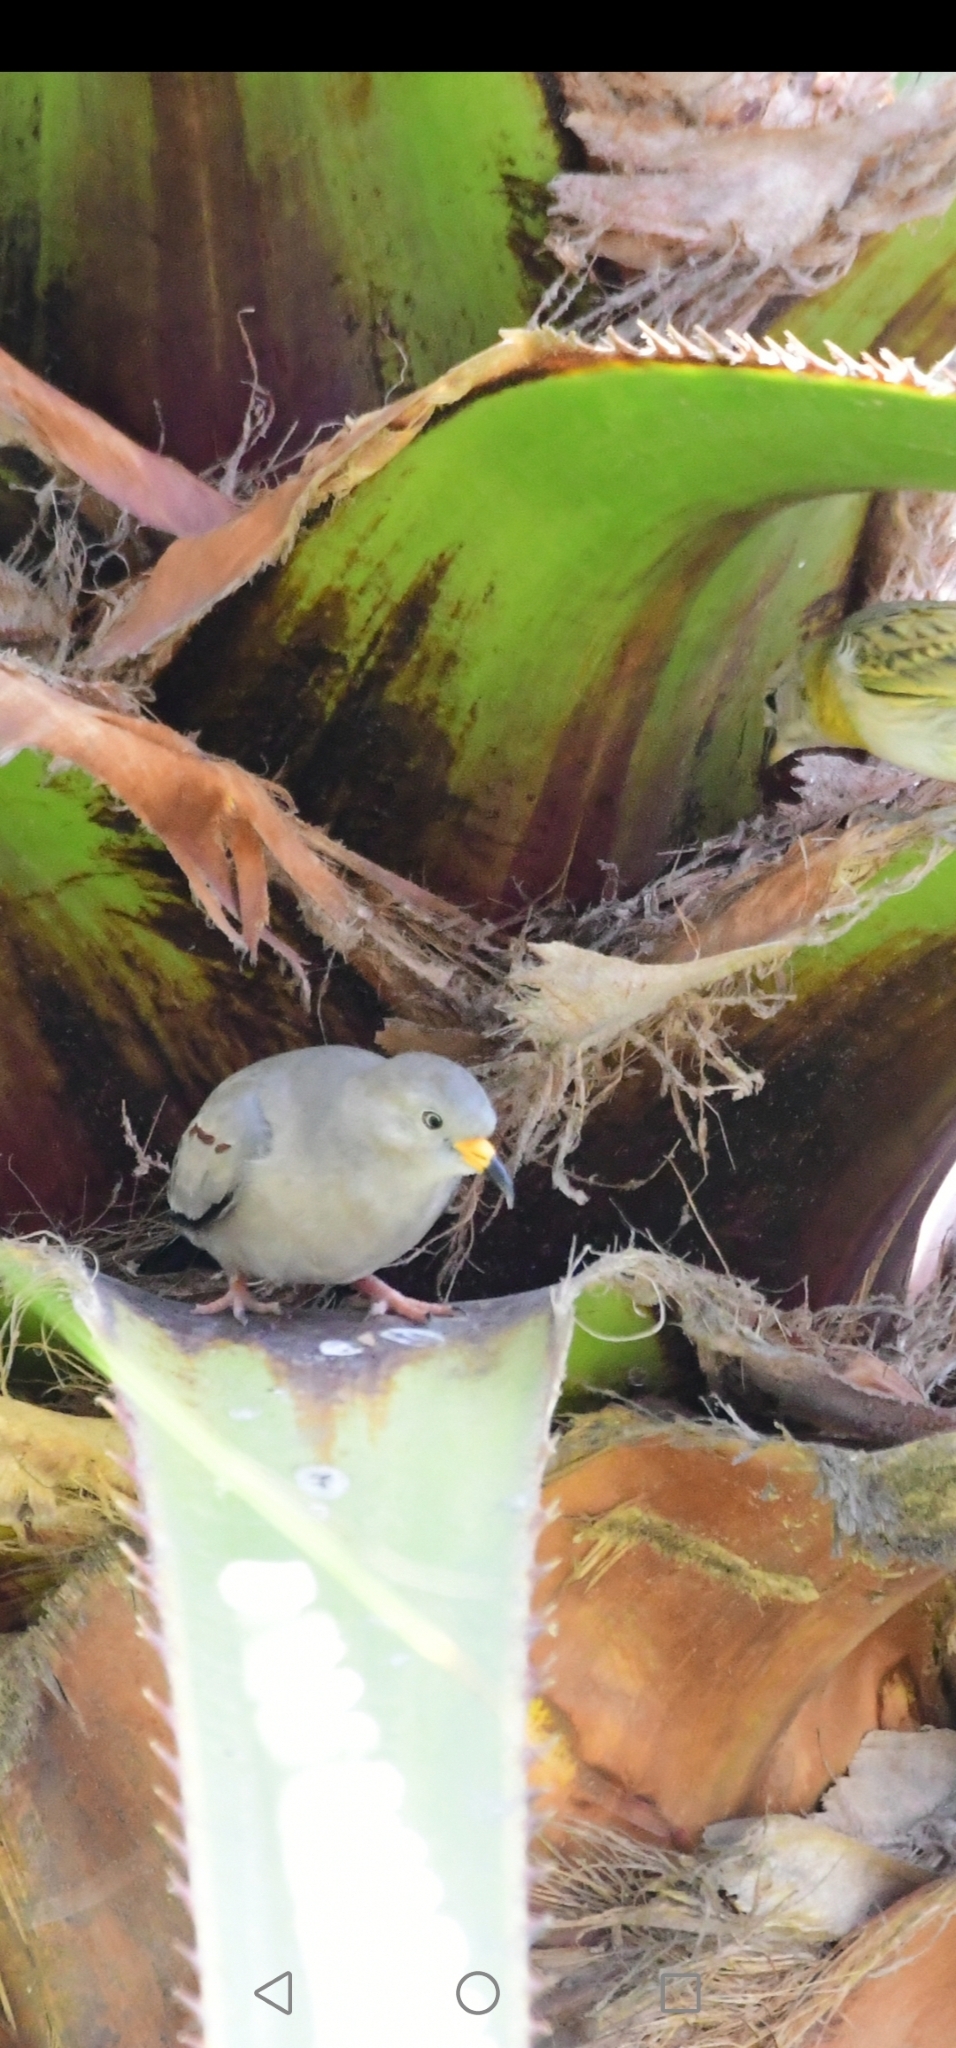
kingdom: Animalia
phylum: Chordata
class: Aves
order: Passeriformes
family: Thraupidae
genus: Sicalis
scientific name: Sicalis flaveola
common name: Saffron finch
